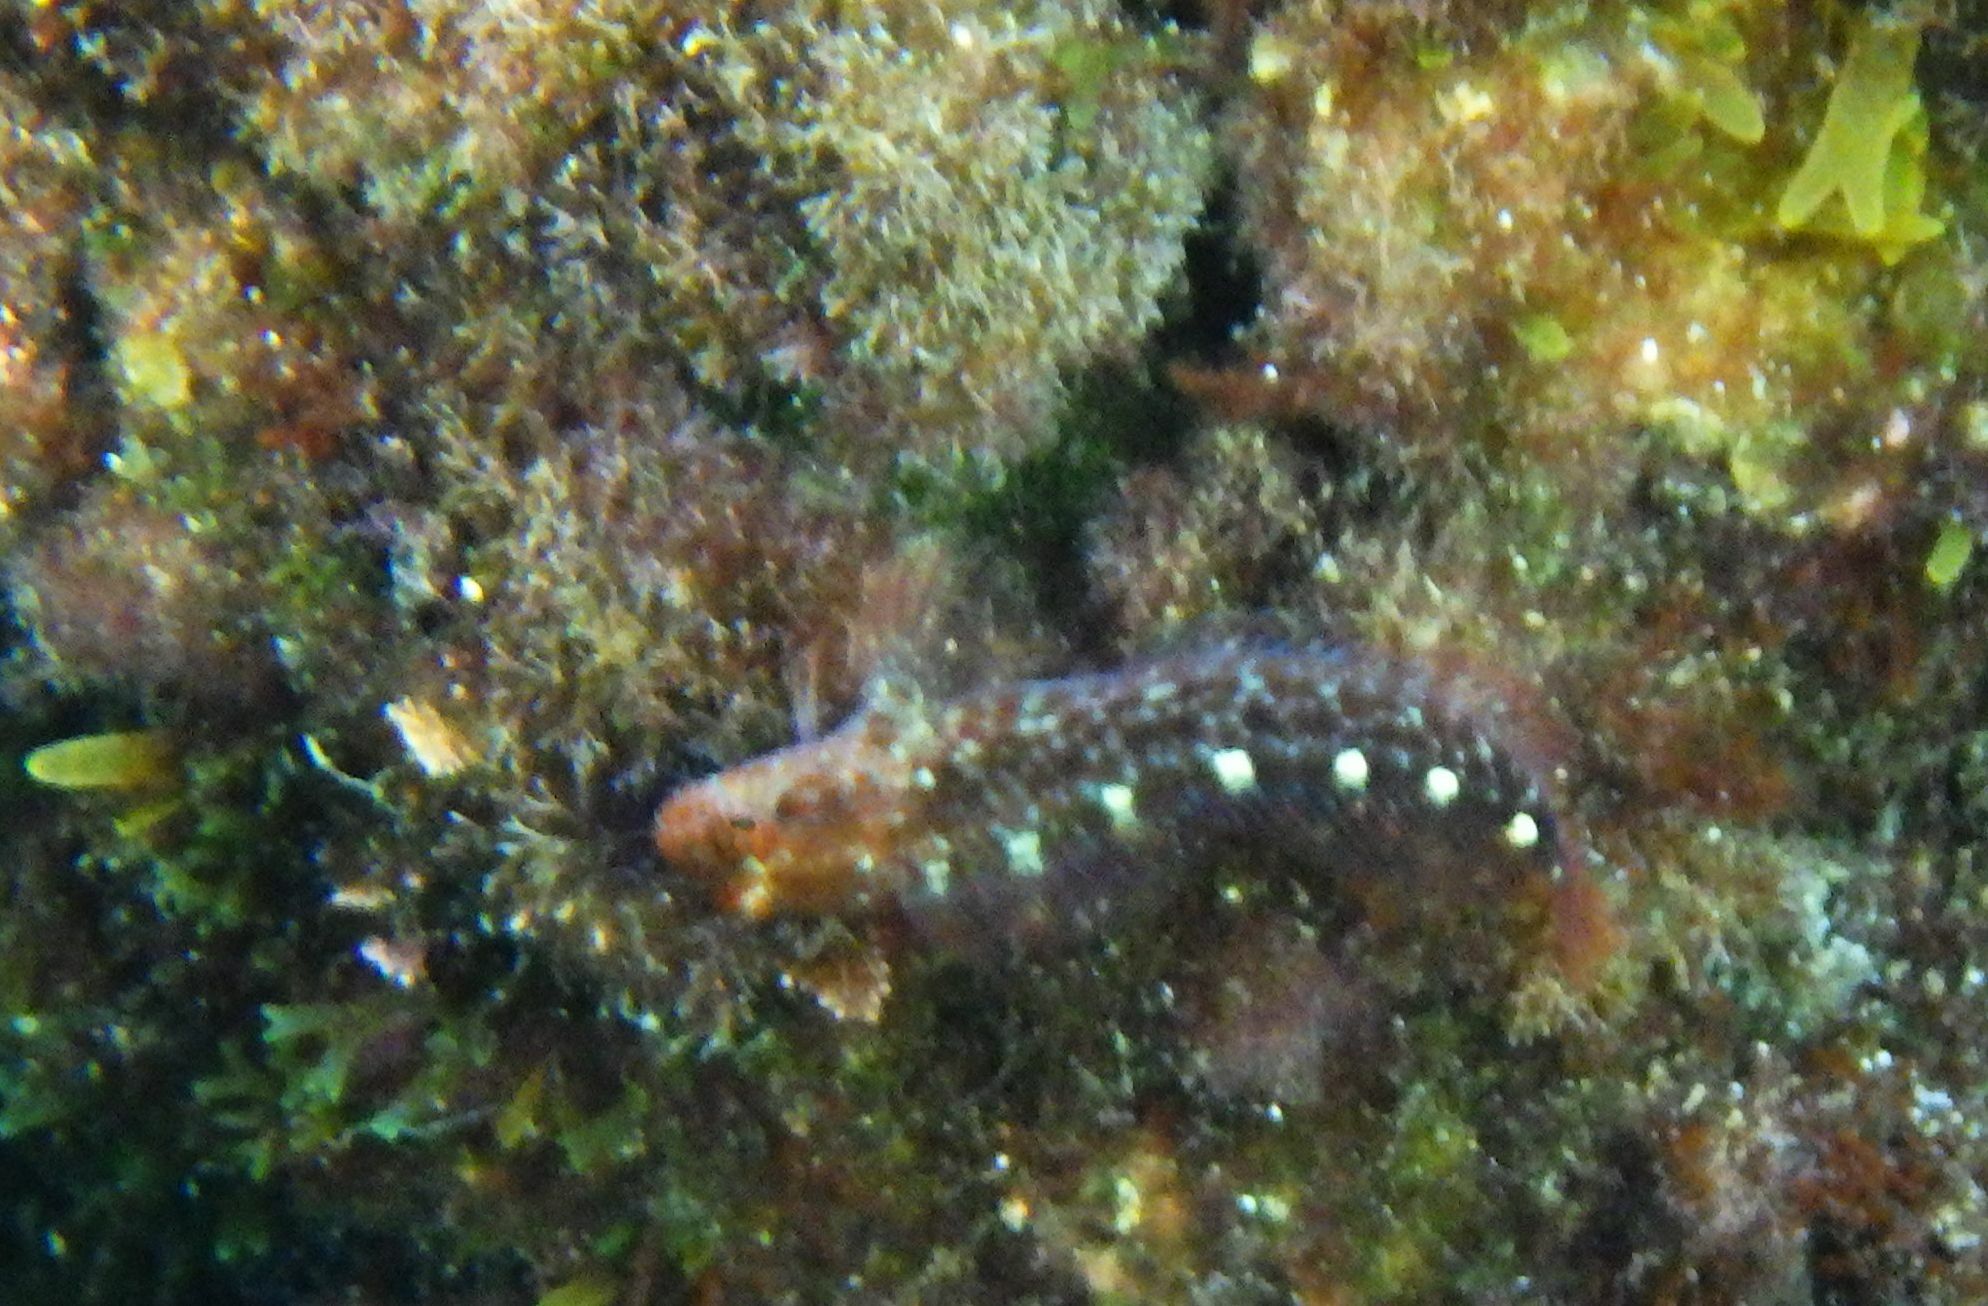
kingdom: Animalia
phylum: Chordata
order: Perciformes
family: Blenniidae
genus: Parablennius
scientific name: Parablennius zvonimiri
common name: Red blenny
